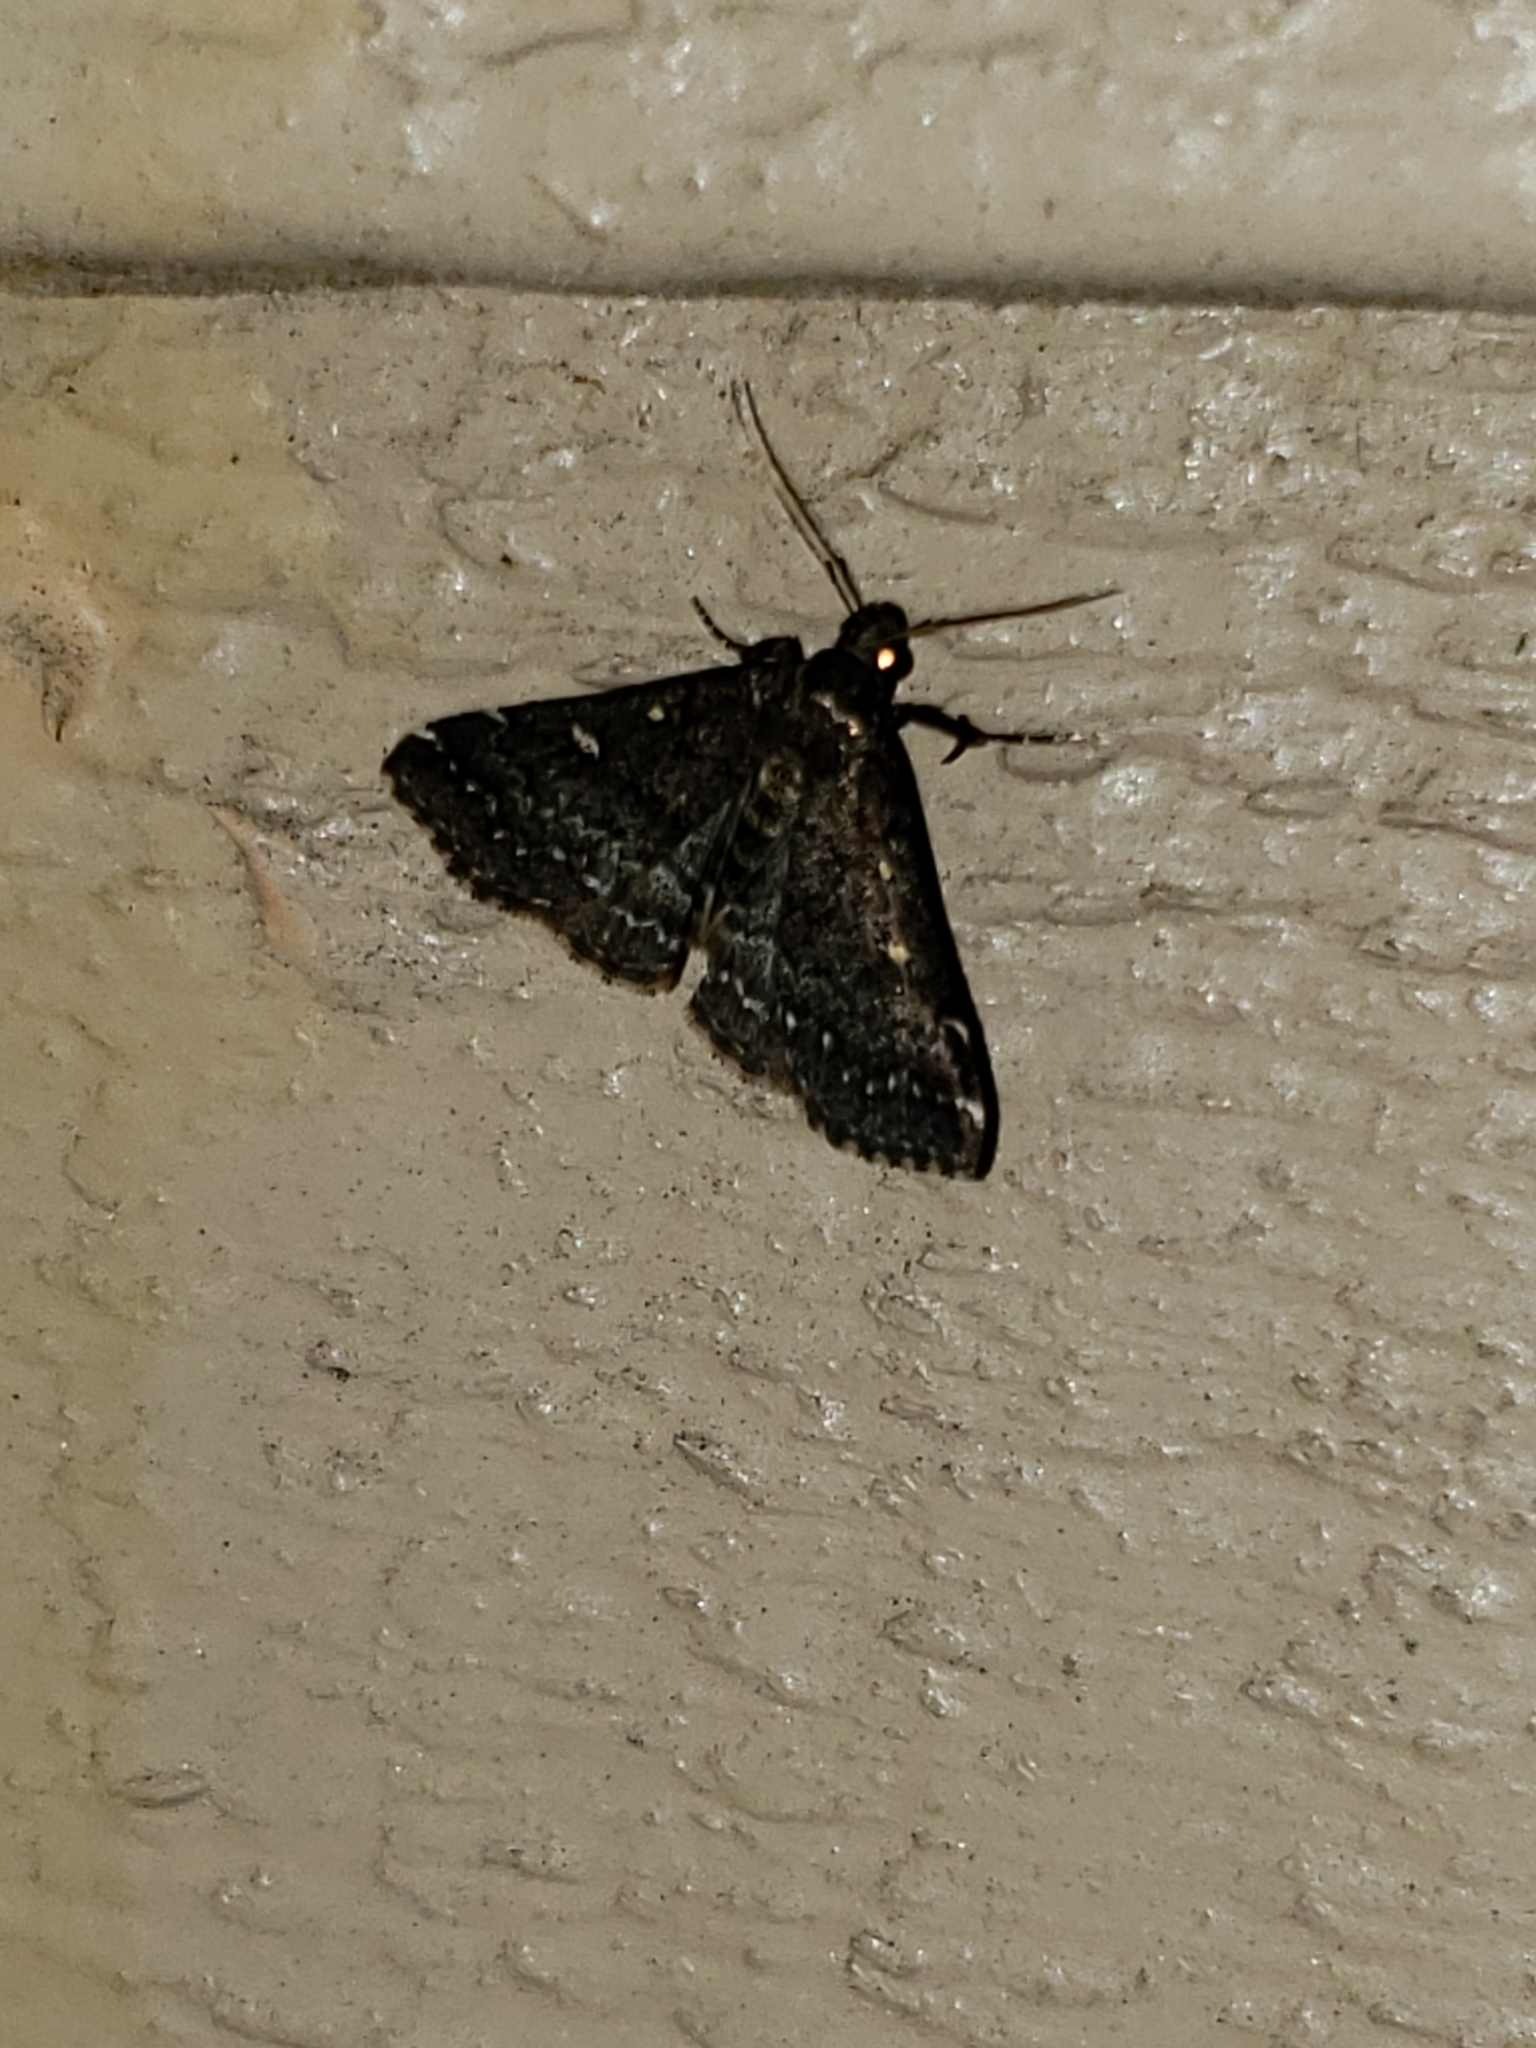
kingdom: Animalia
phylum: Arthropoda
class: Insecta
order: Lepidoptera
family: Erebidae
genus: Tetanolita
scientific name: Tetanolita mynesalis
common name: Smoky tetanolita moth
